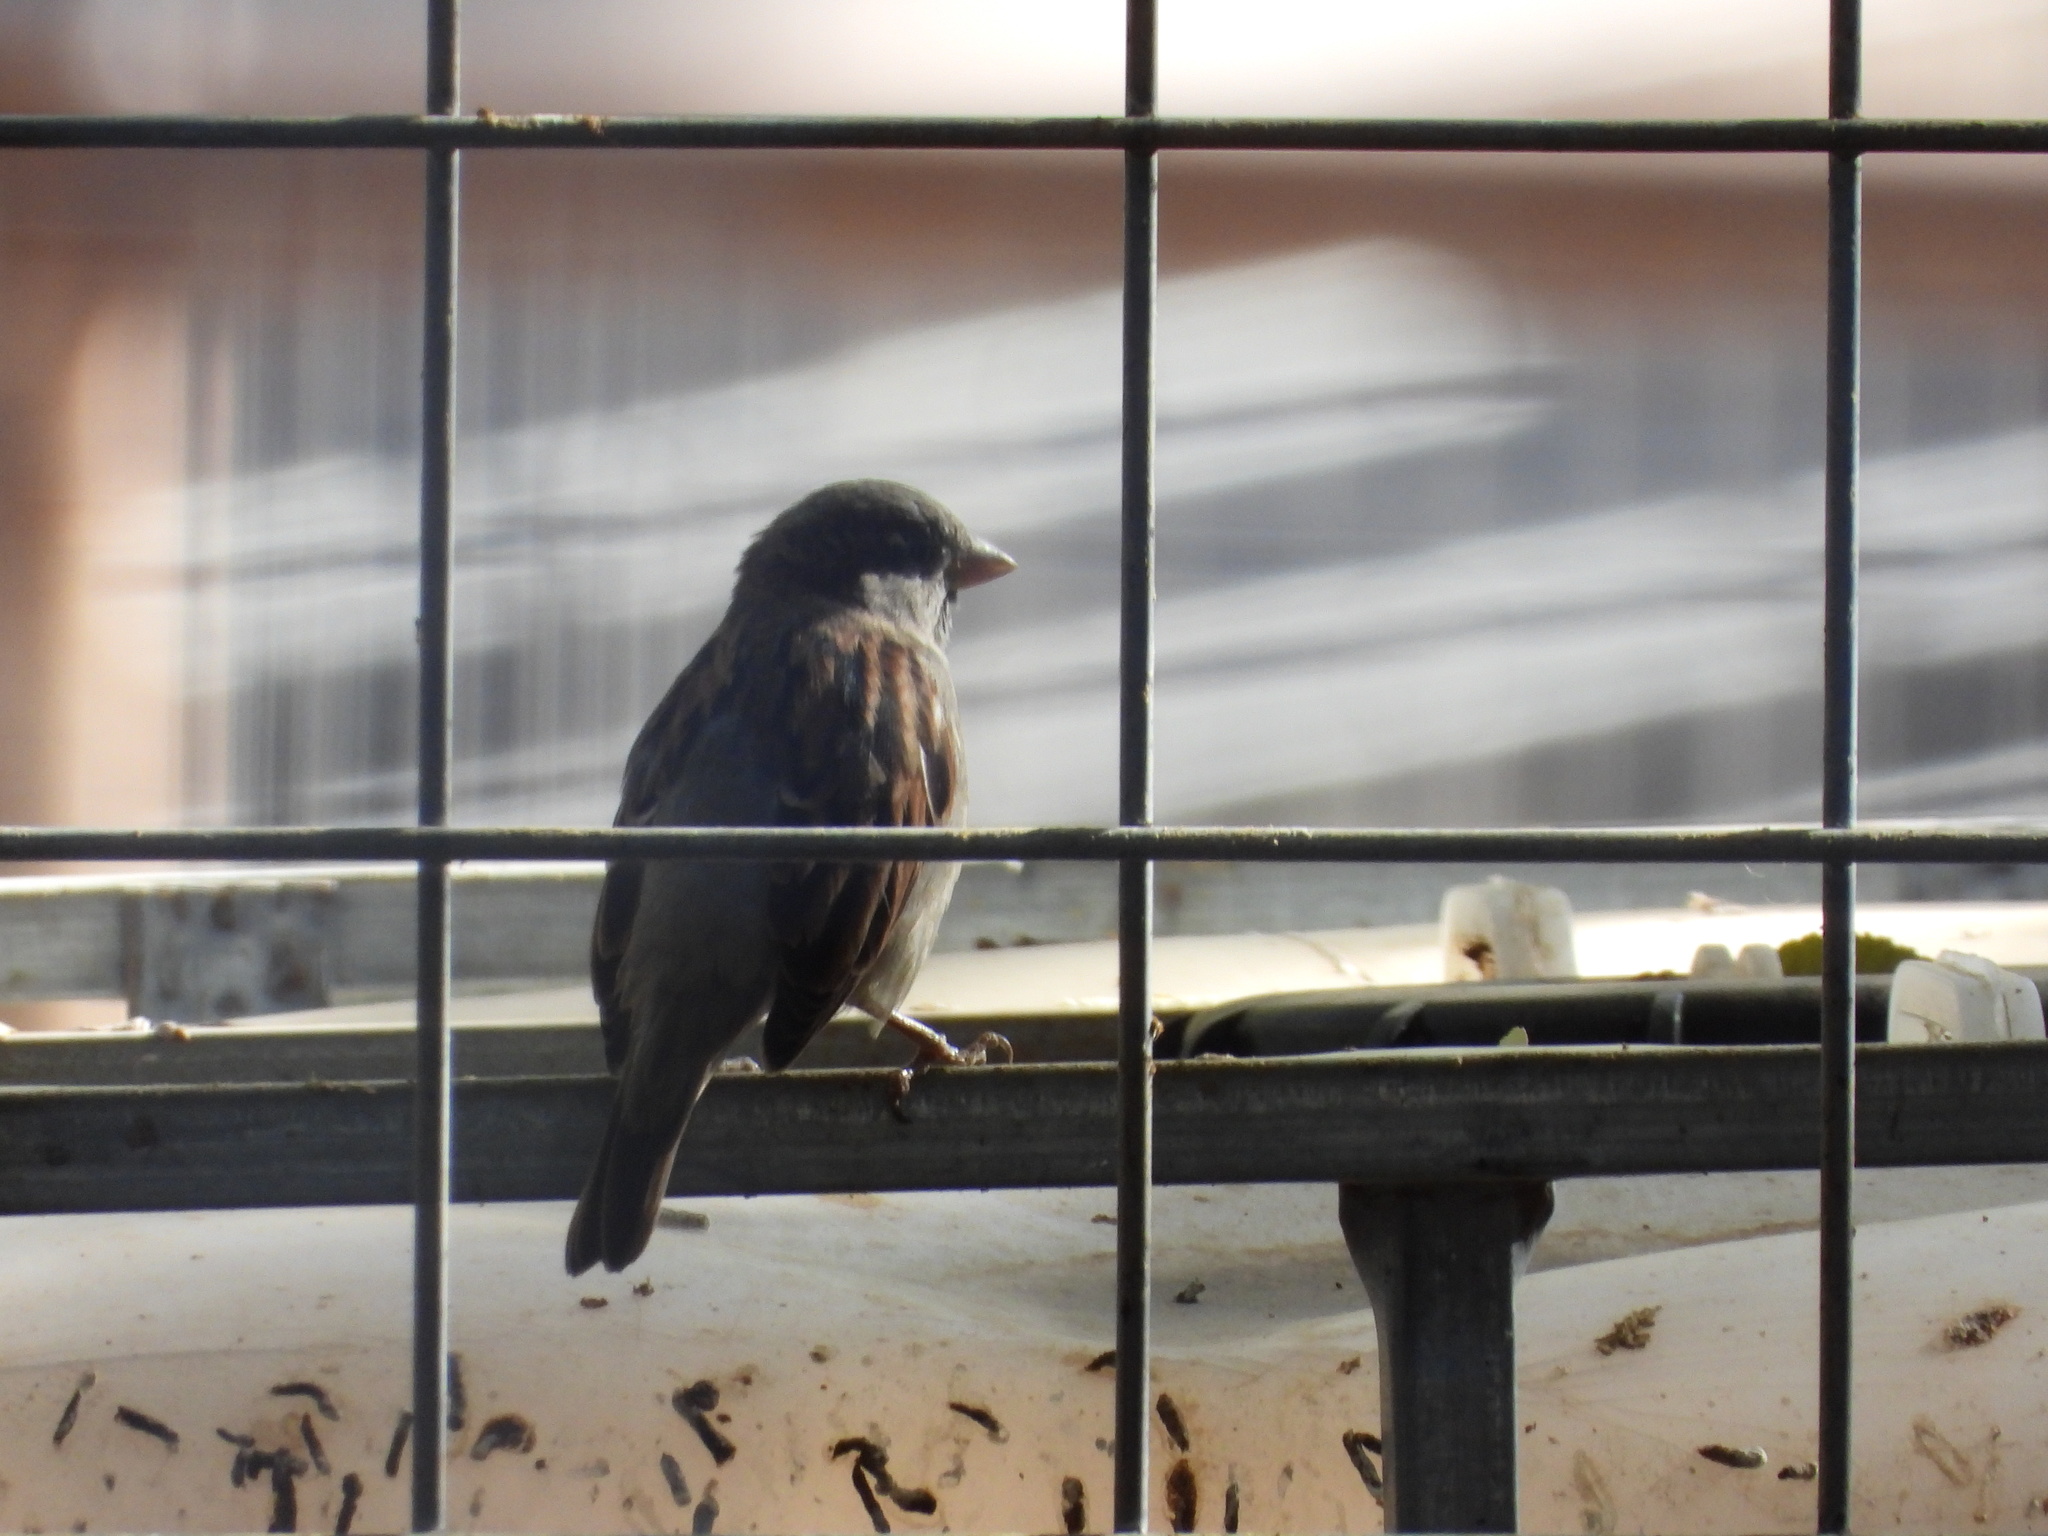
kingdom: Animalia
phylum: Chordata
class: Aves
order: Passeriformes
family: Passeridae
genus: Passer
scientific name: Passer domesticus
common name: House sparrow
